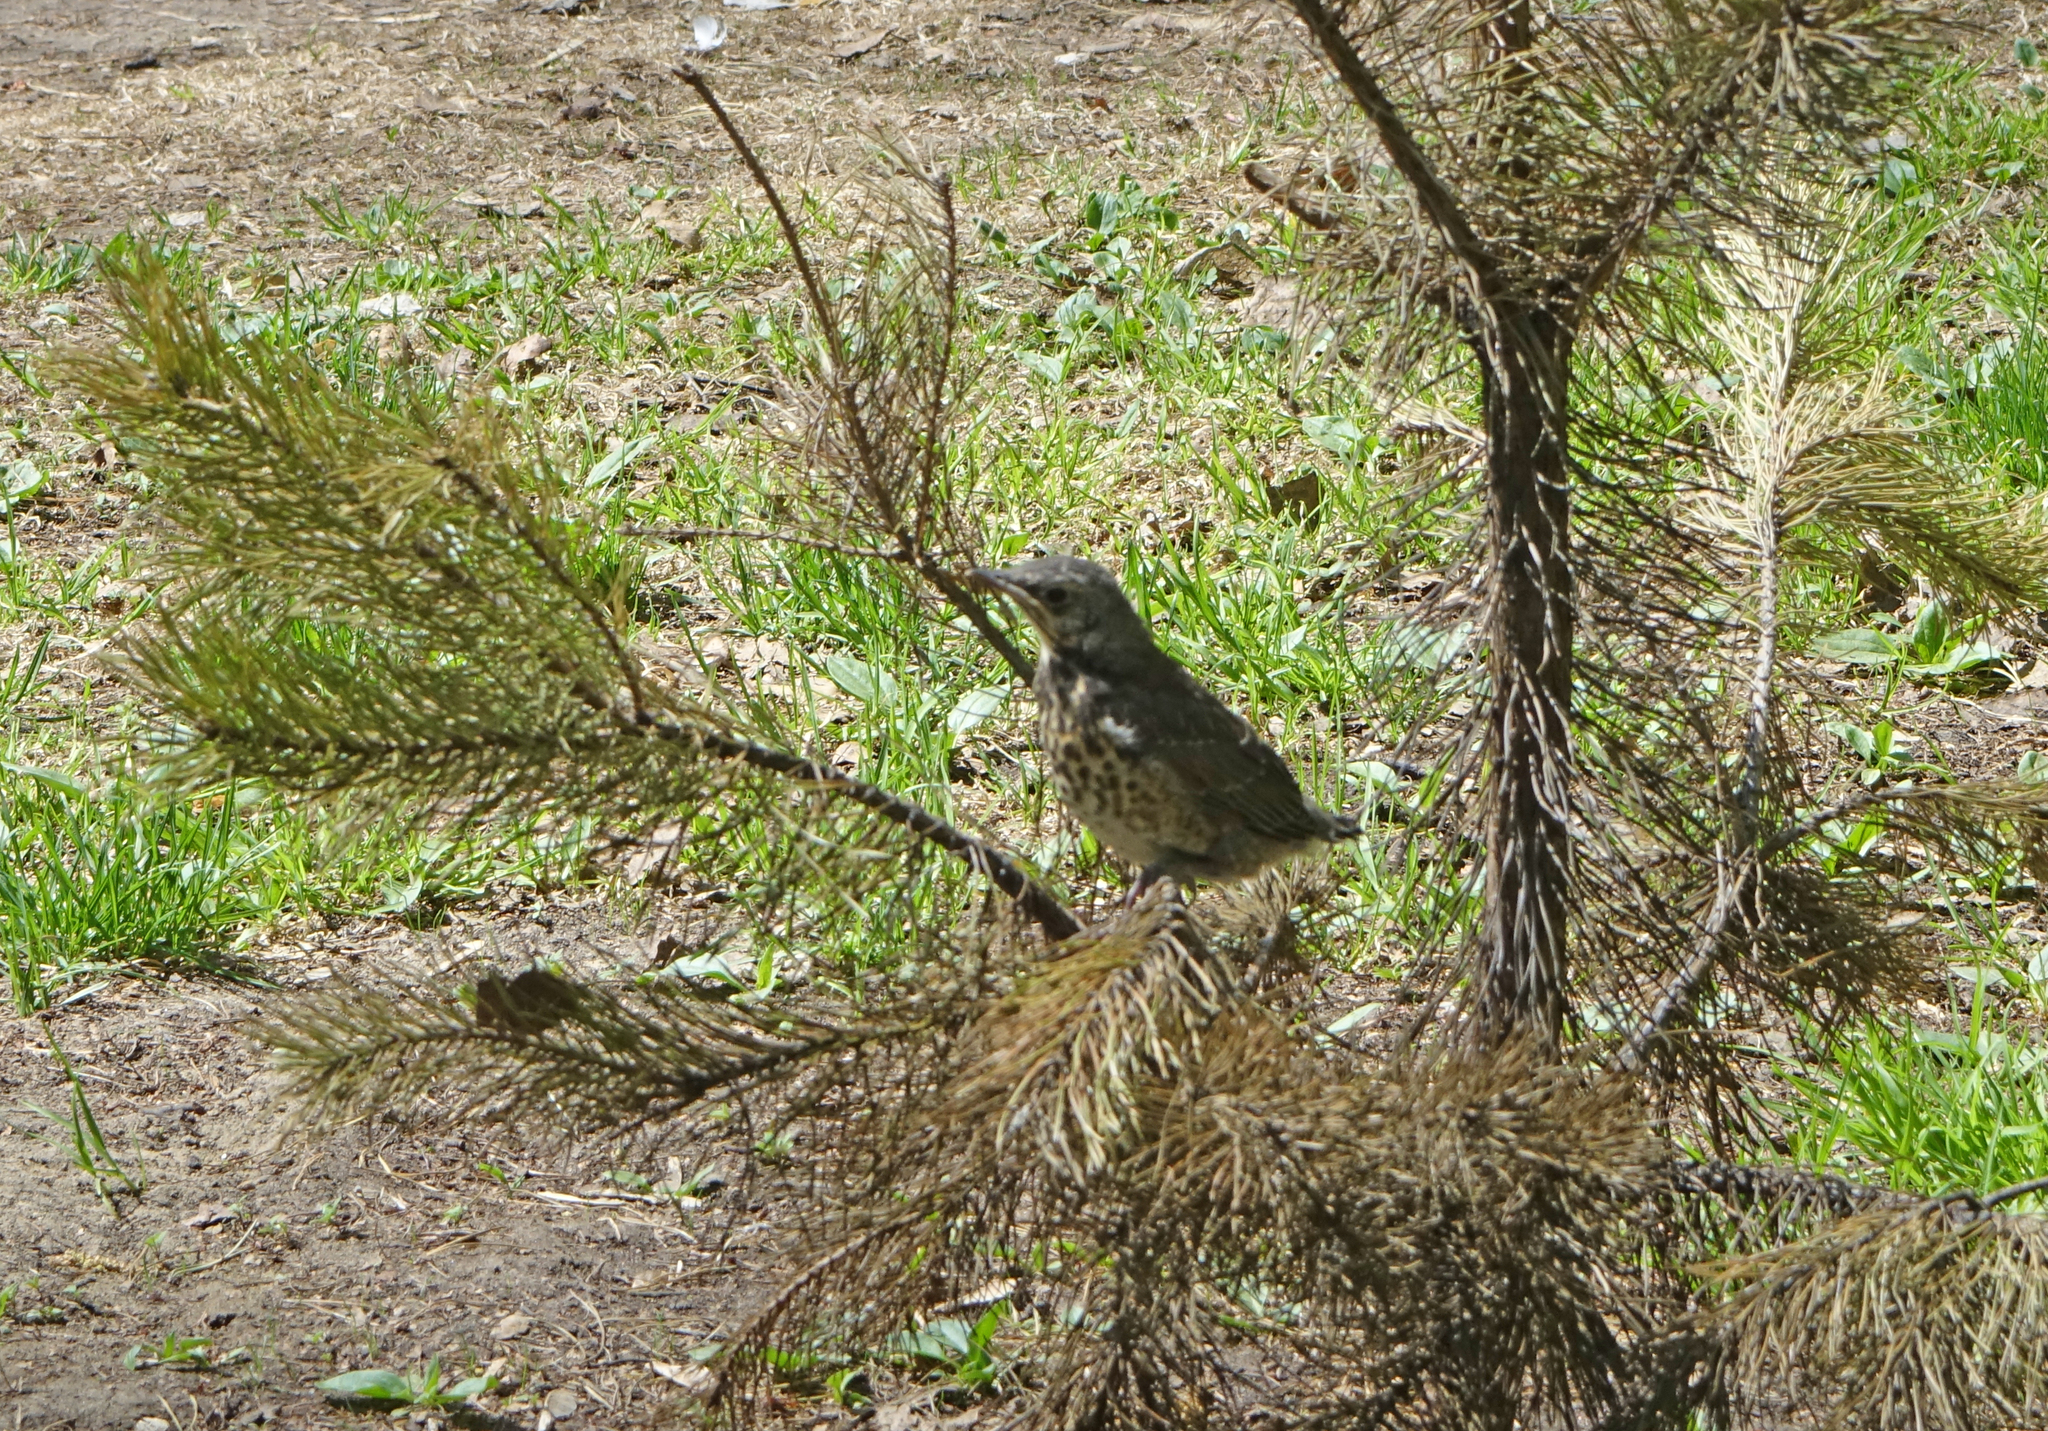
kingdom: Animalia
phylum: Chordata
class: Aves
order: Passeriformes
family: Turdidae
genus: Turdus
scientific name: Turdus pilaris
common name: Fieldfare
